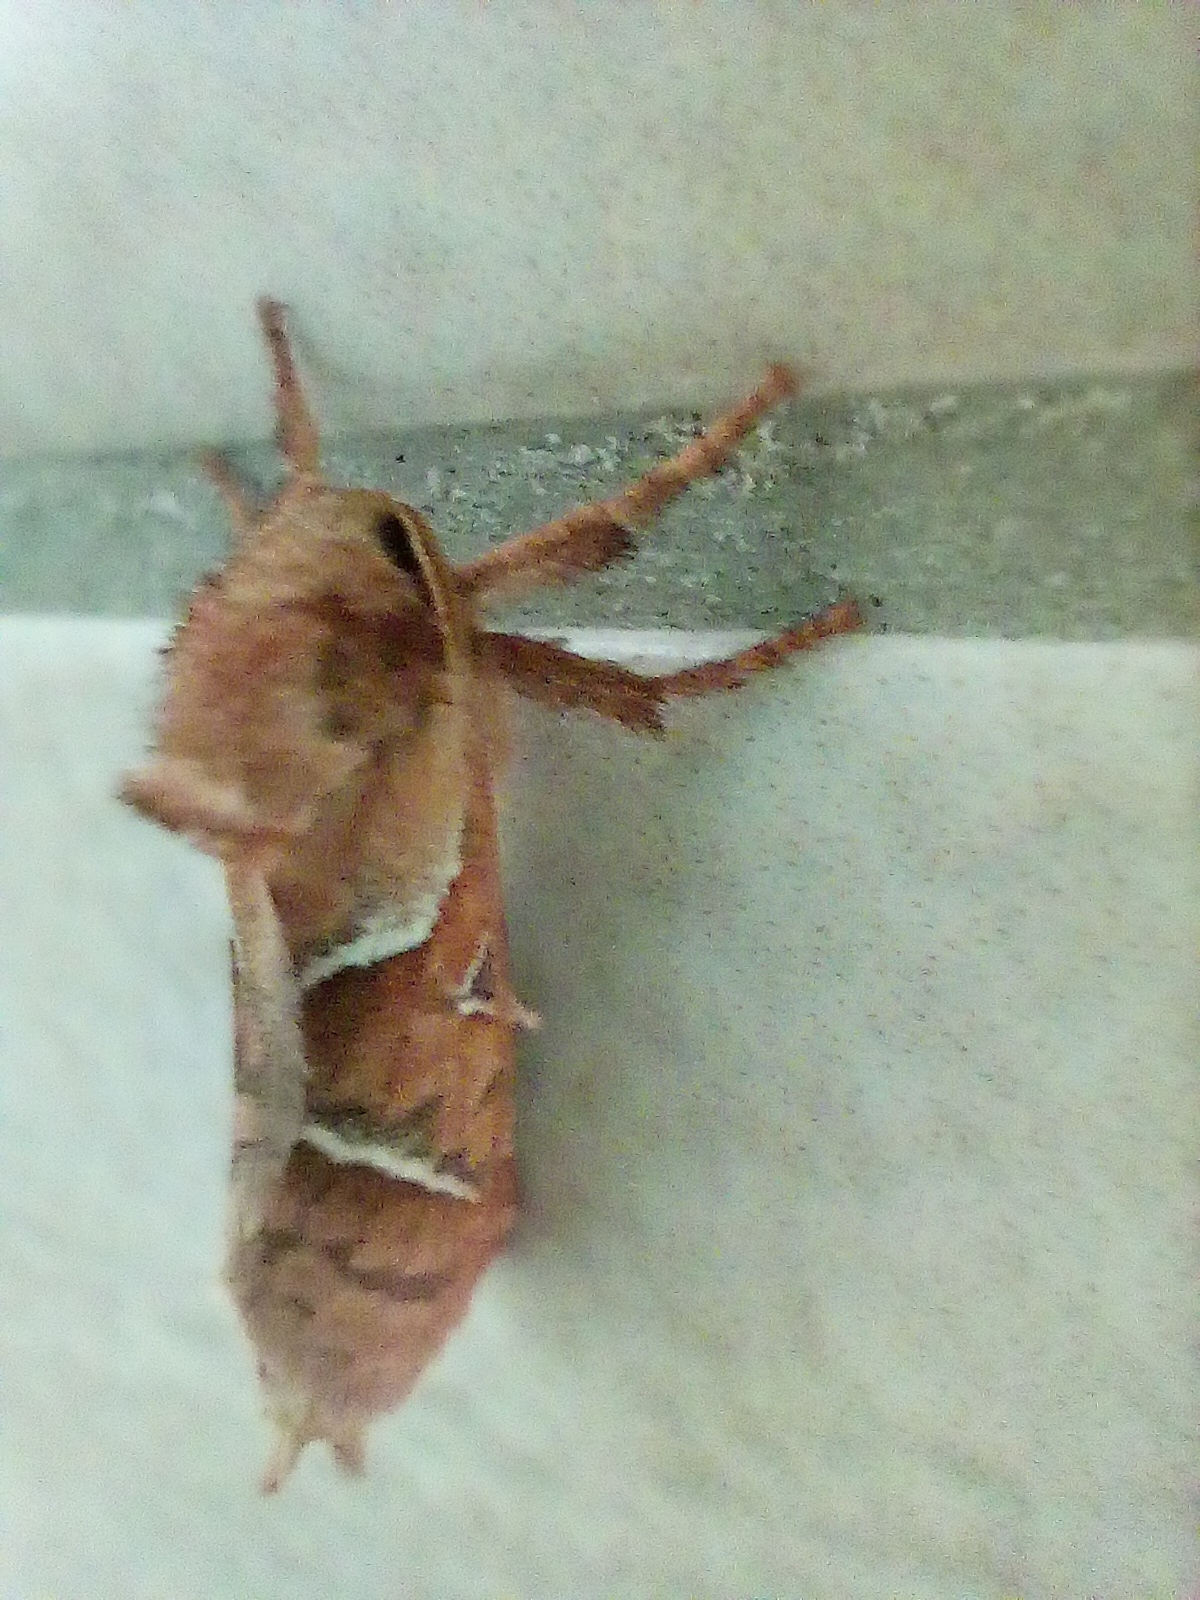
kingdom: Animalia
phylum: Arthropoda
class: Insecta
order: Lepidoptera
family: Hepialidae
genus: Triodia
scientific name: Triodia sylvina
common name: Orange swift
